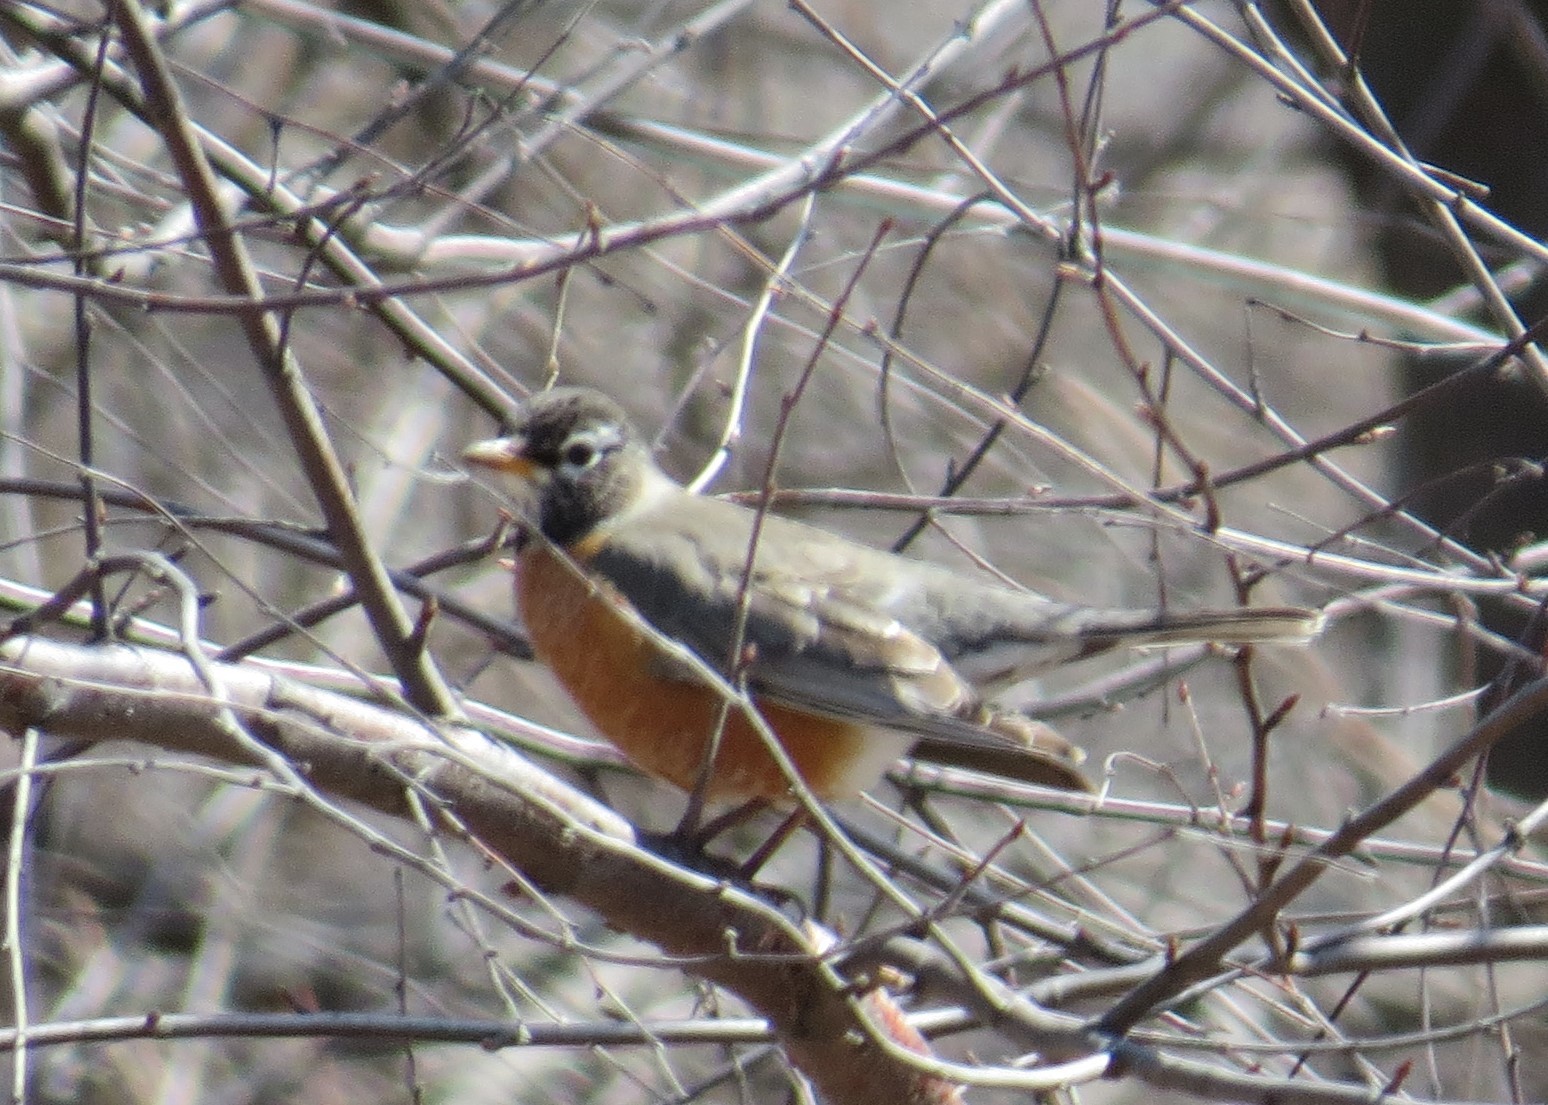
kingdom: Animalia
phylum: Chordata
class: Aves
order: Passeriformes
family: Turdidae
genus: Turdus
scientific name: Turdus migratorius
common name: American robin
